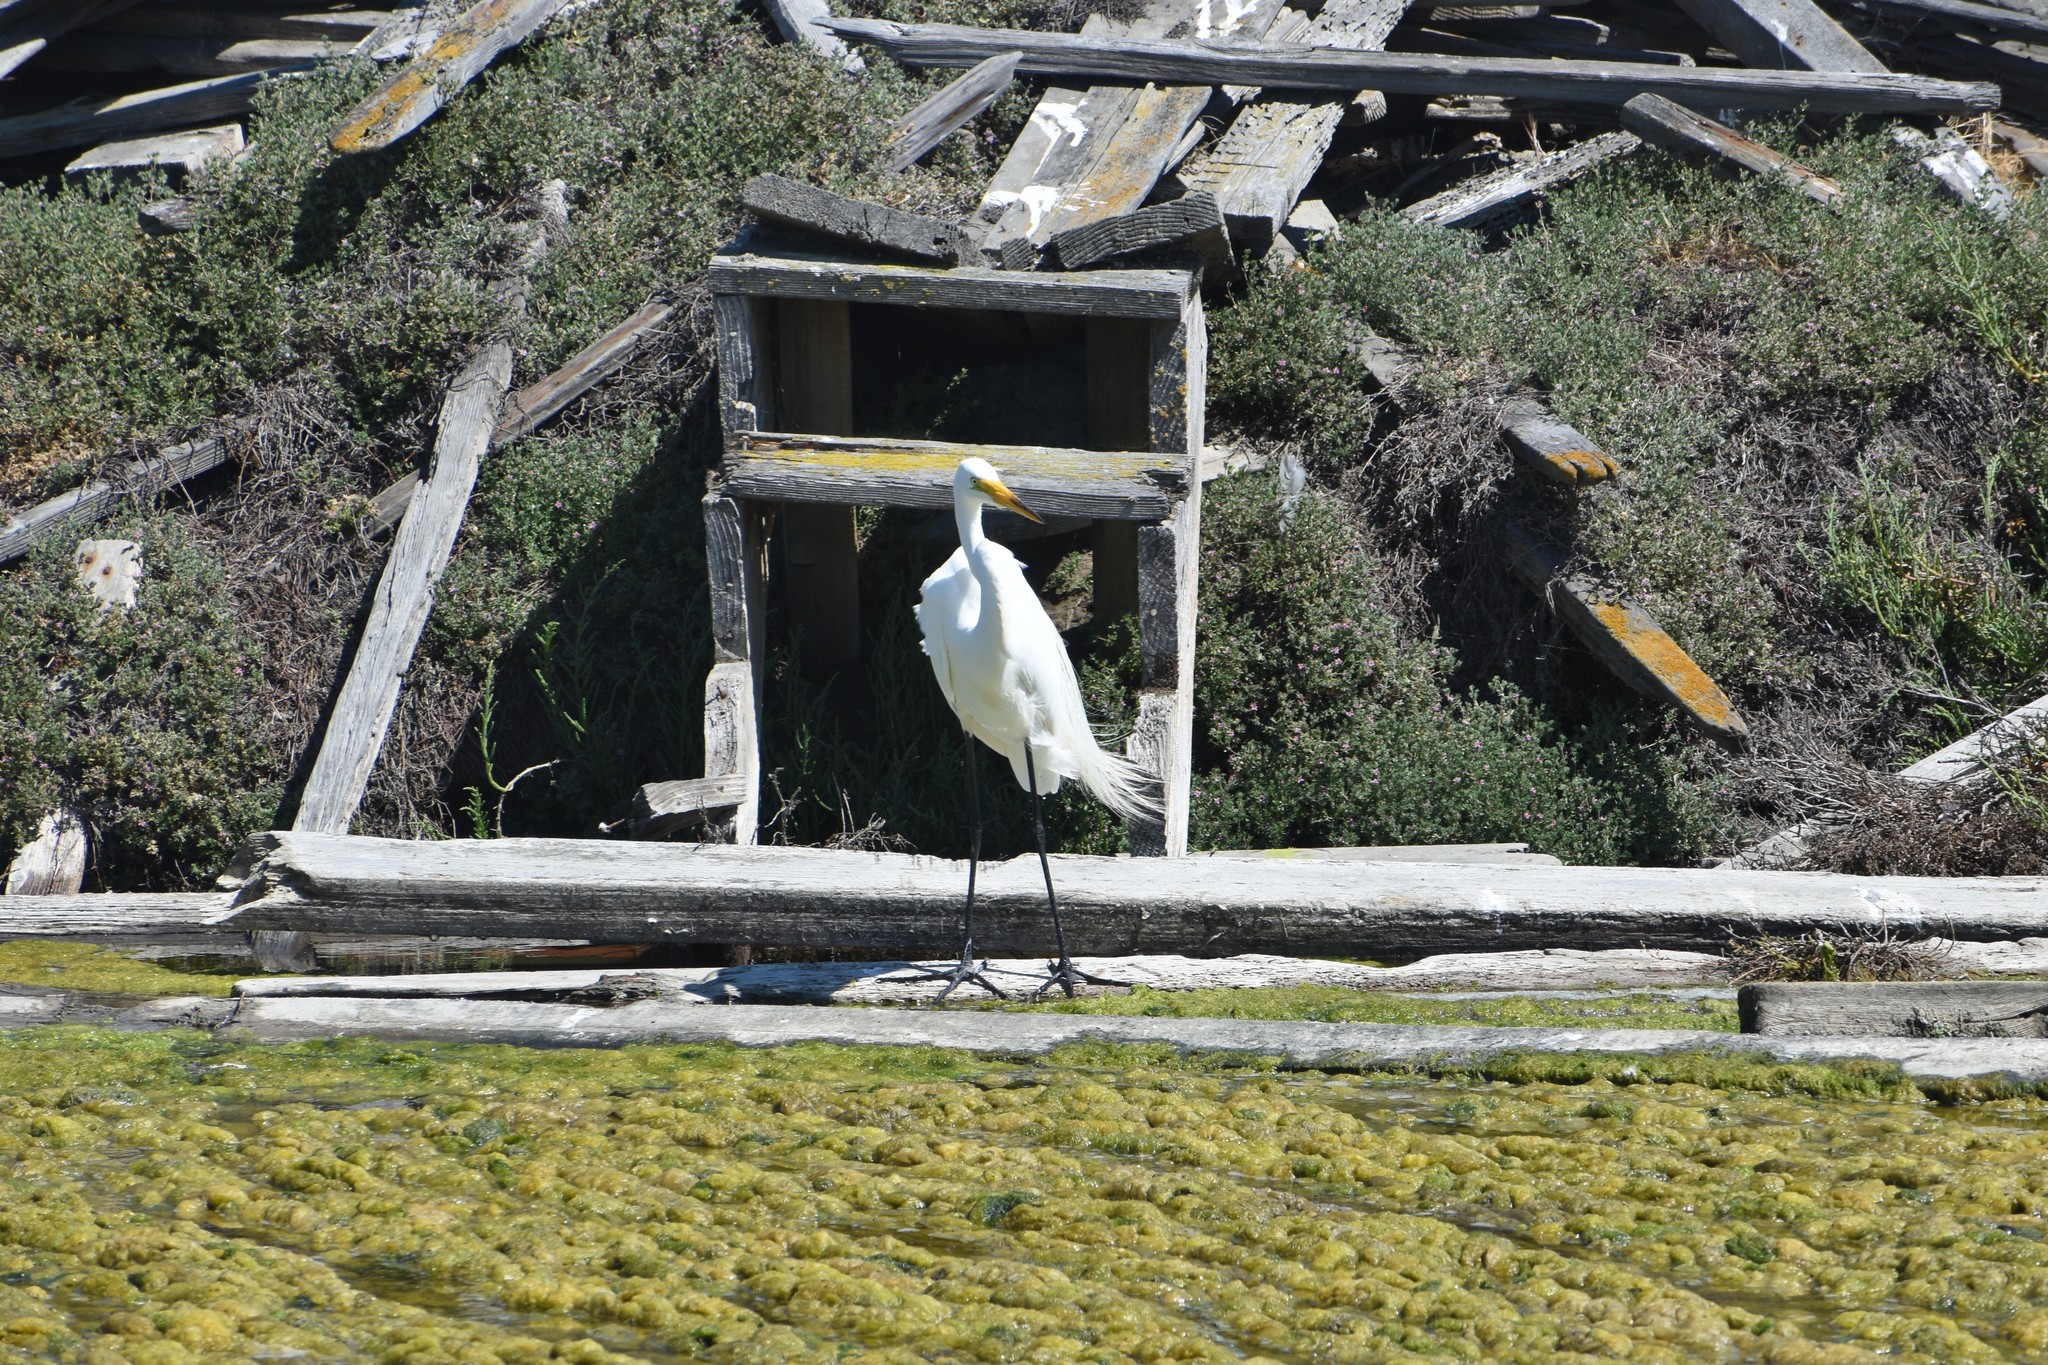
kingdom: Animalia
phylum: Chordata
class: Aves
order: Pelecaniformes
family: Ardeidae
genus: Ardea
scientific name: Ardea alba
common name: Great egret
